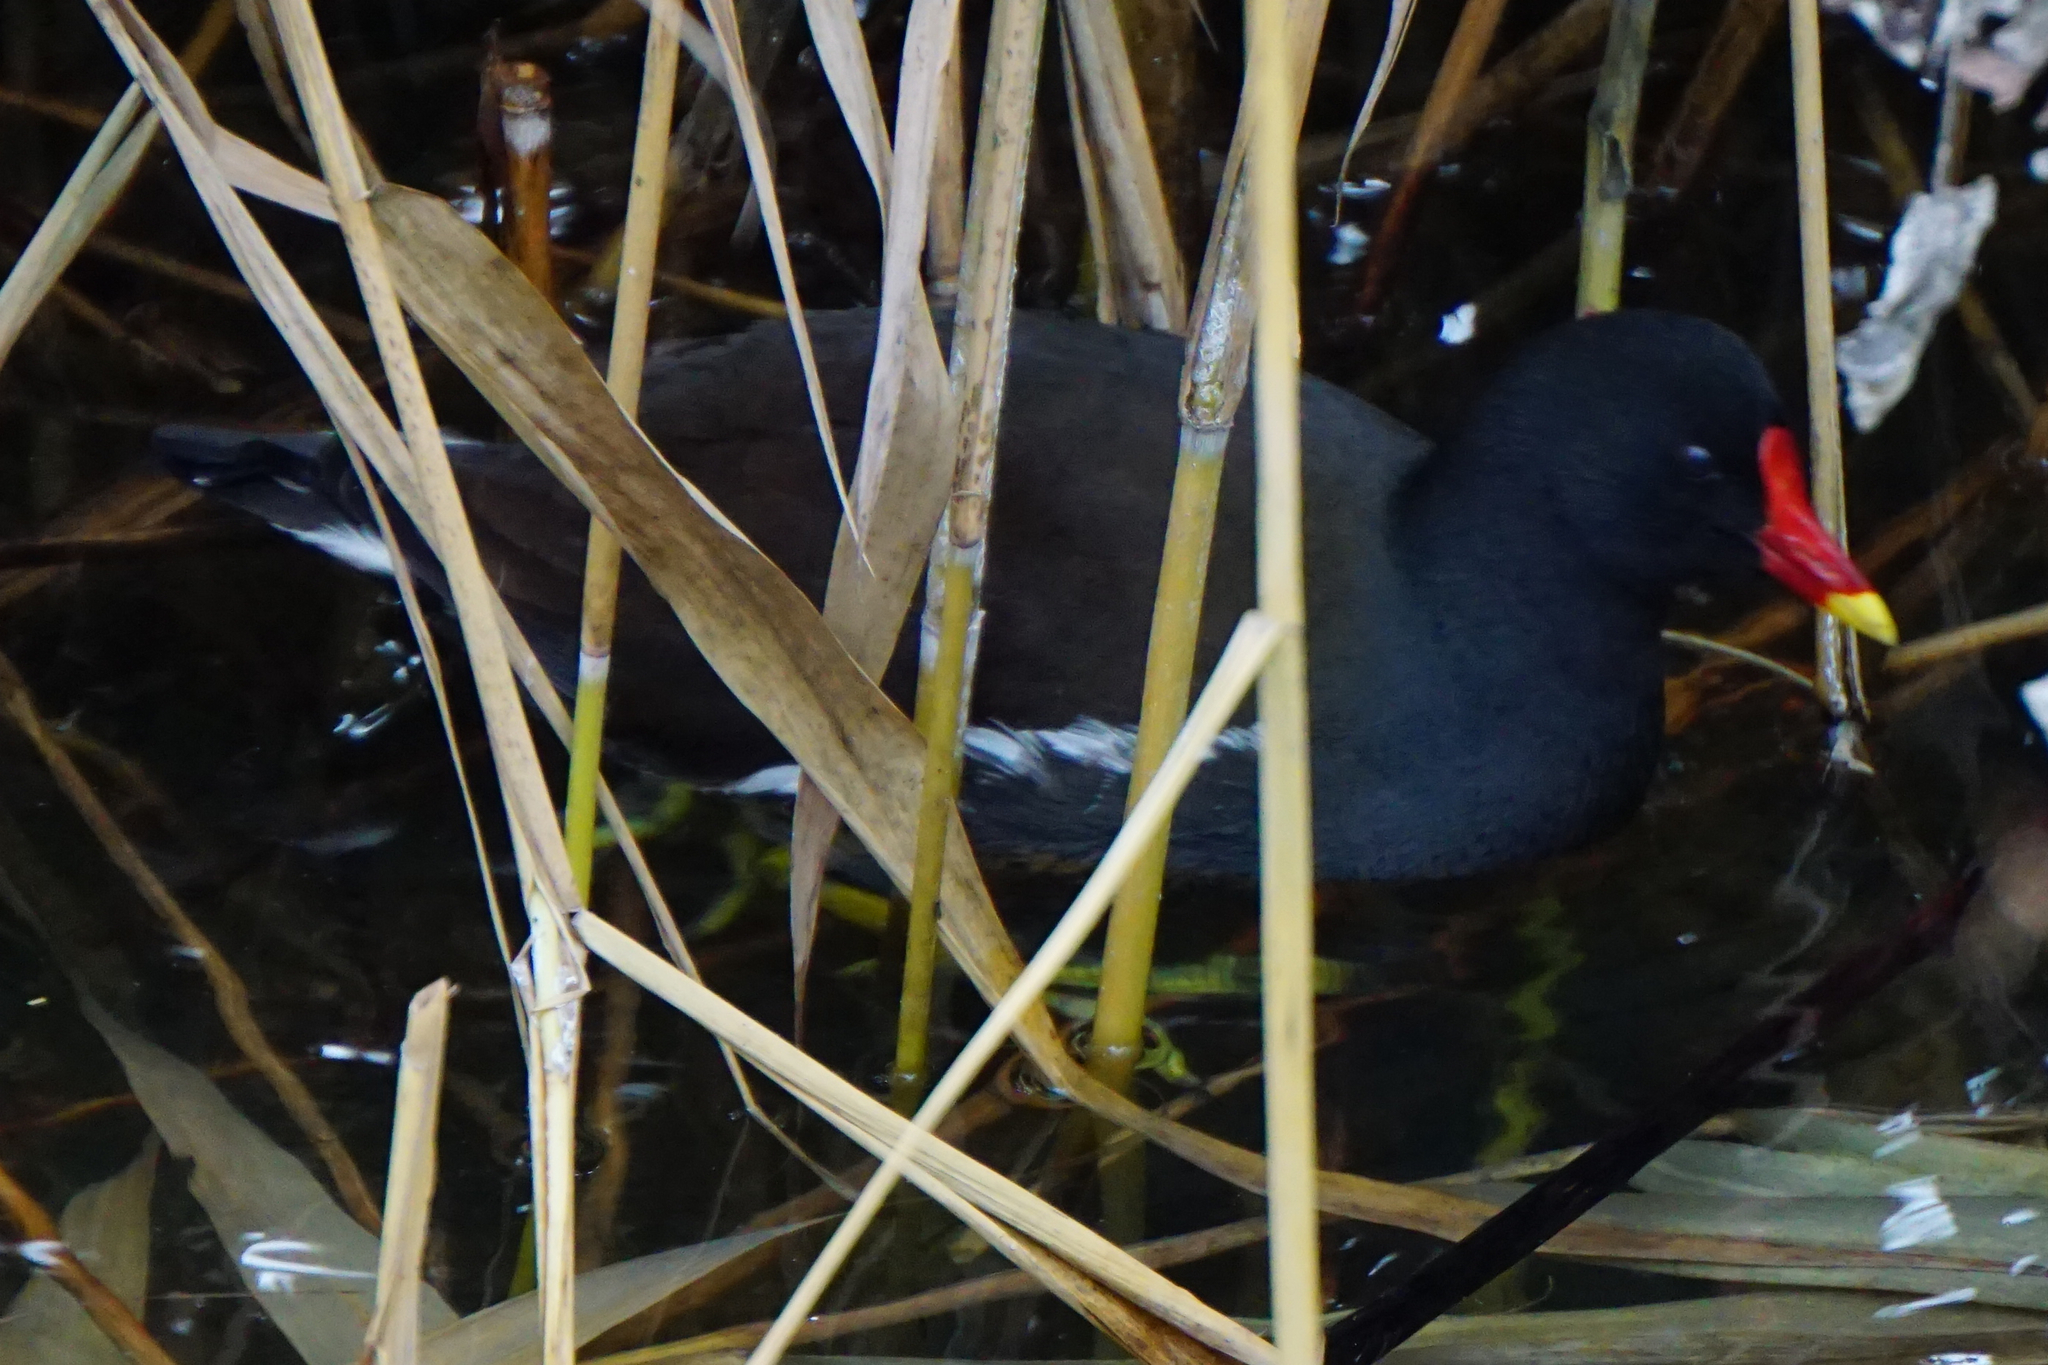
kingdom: Animalia
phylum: Chordata
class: Aves
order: Gruiformes
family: Rallidae
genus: Gallinula
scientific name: Gallinula chloropus
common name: Common moorhen
